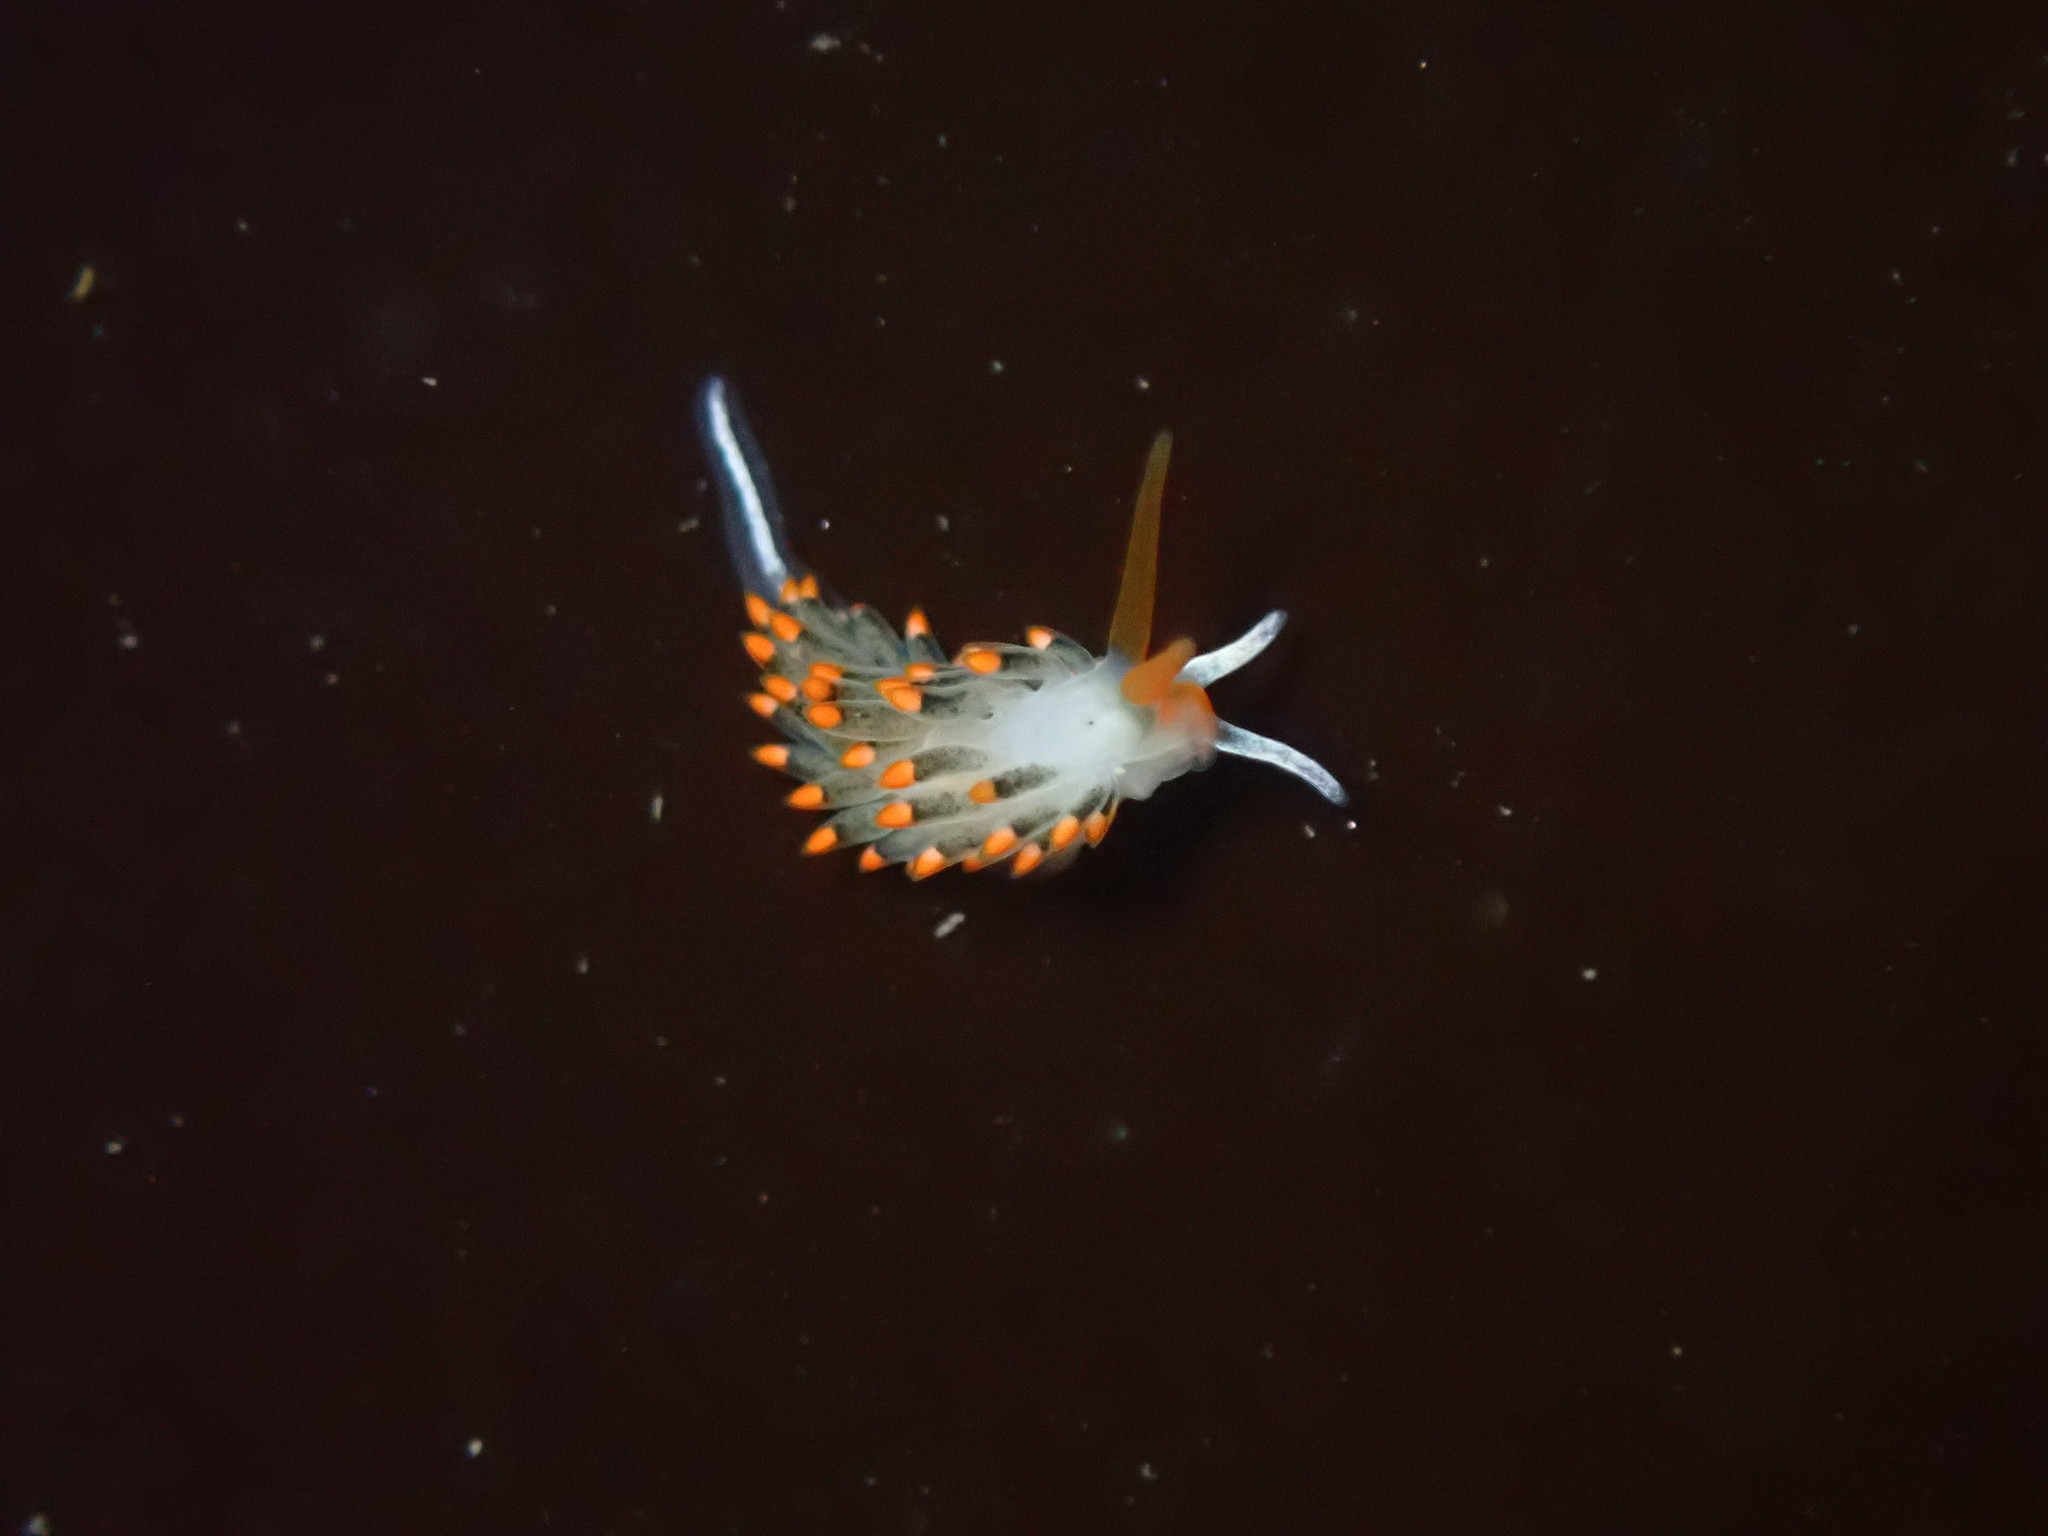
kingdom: Animalia
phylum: Mollusca
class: Gastropoda
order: Nudibranchia
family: Trinchesiidae
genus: Diaphoreolis
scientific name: Diaphoreolis lagunae
